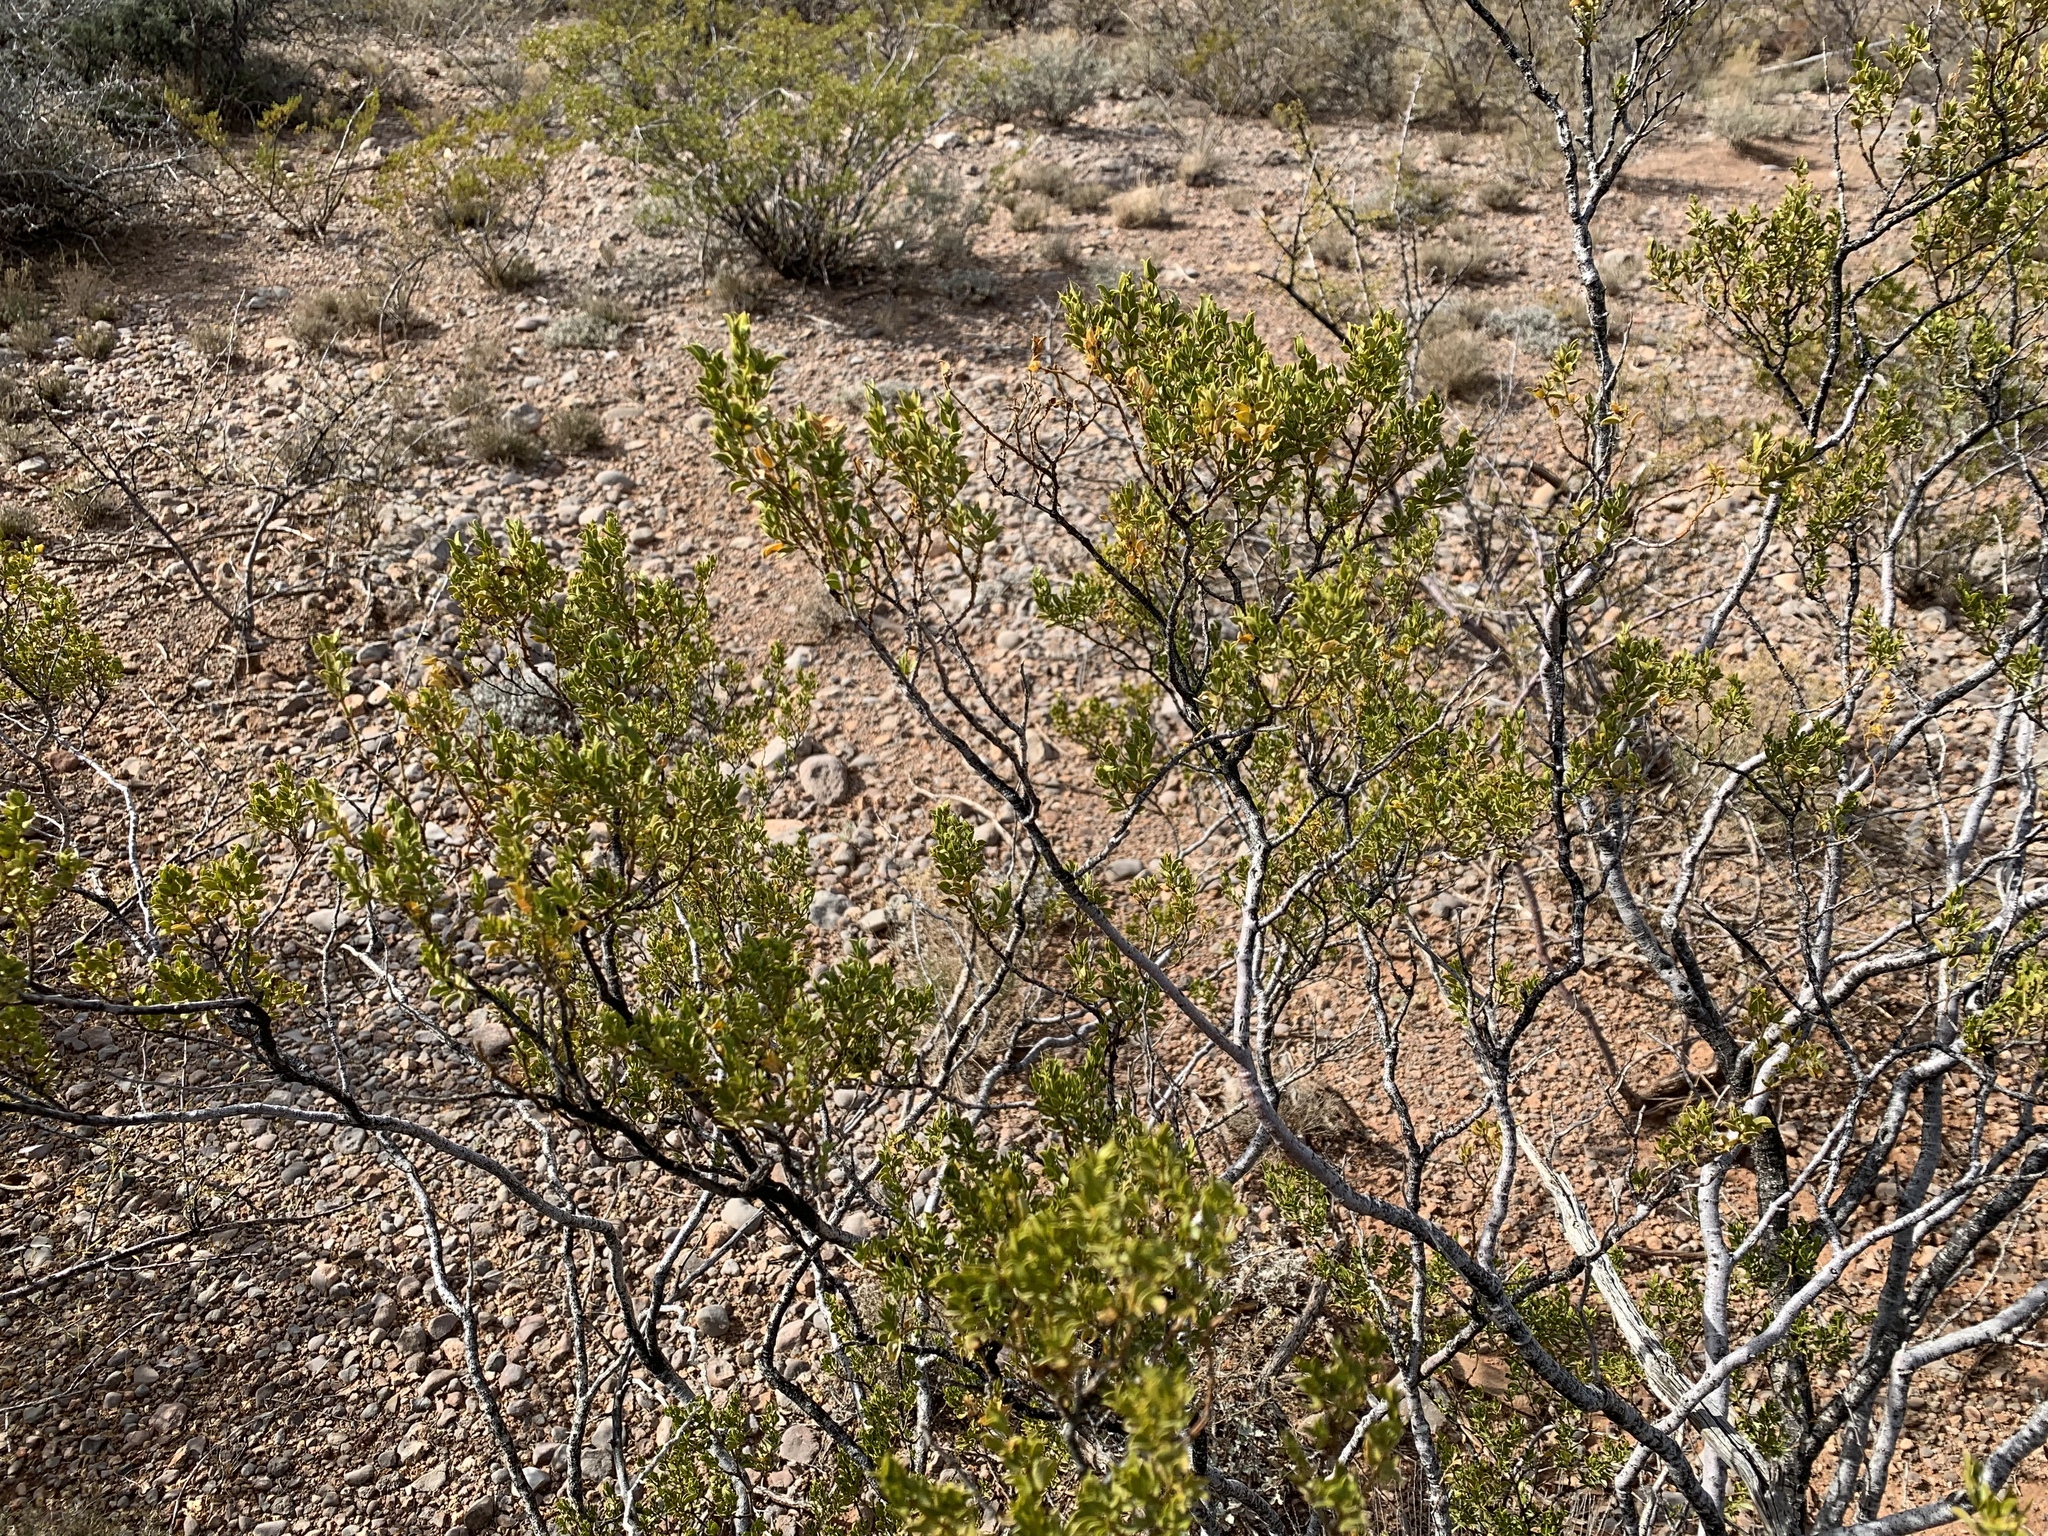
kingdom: Plantae
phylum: Tracheophyta
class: Magnoliopsida
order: Zygophyllales
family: Zygophyllaceae
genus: Larrea
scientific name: Larrea tridentata
